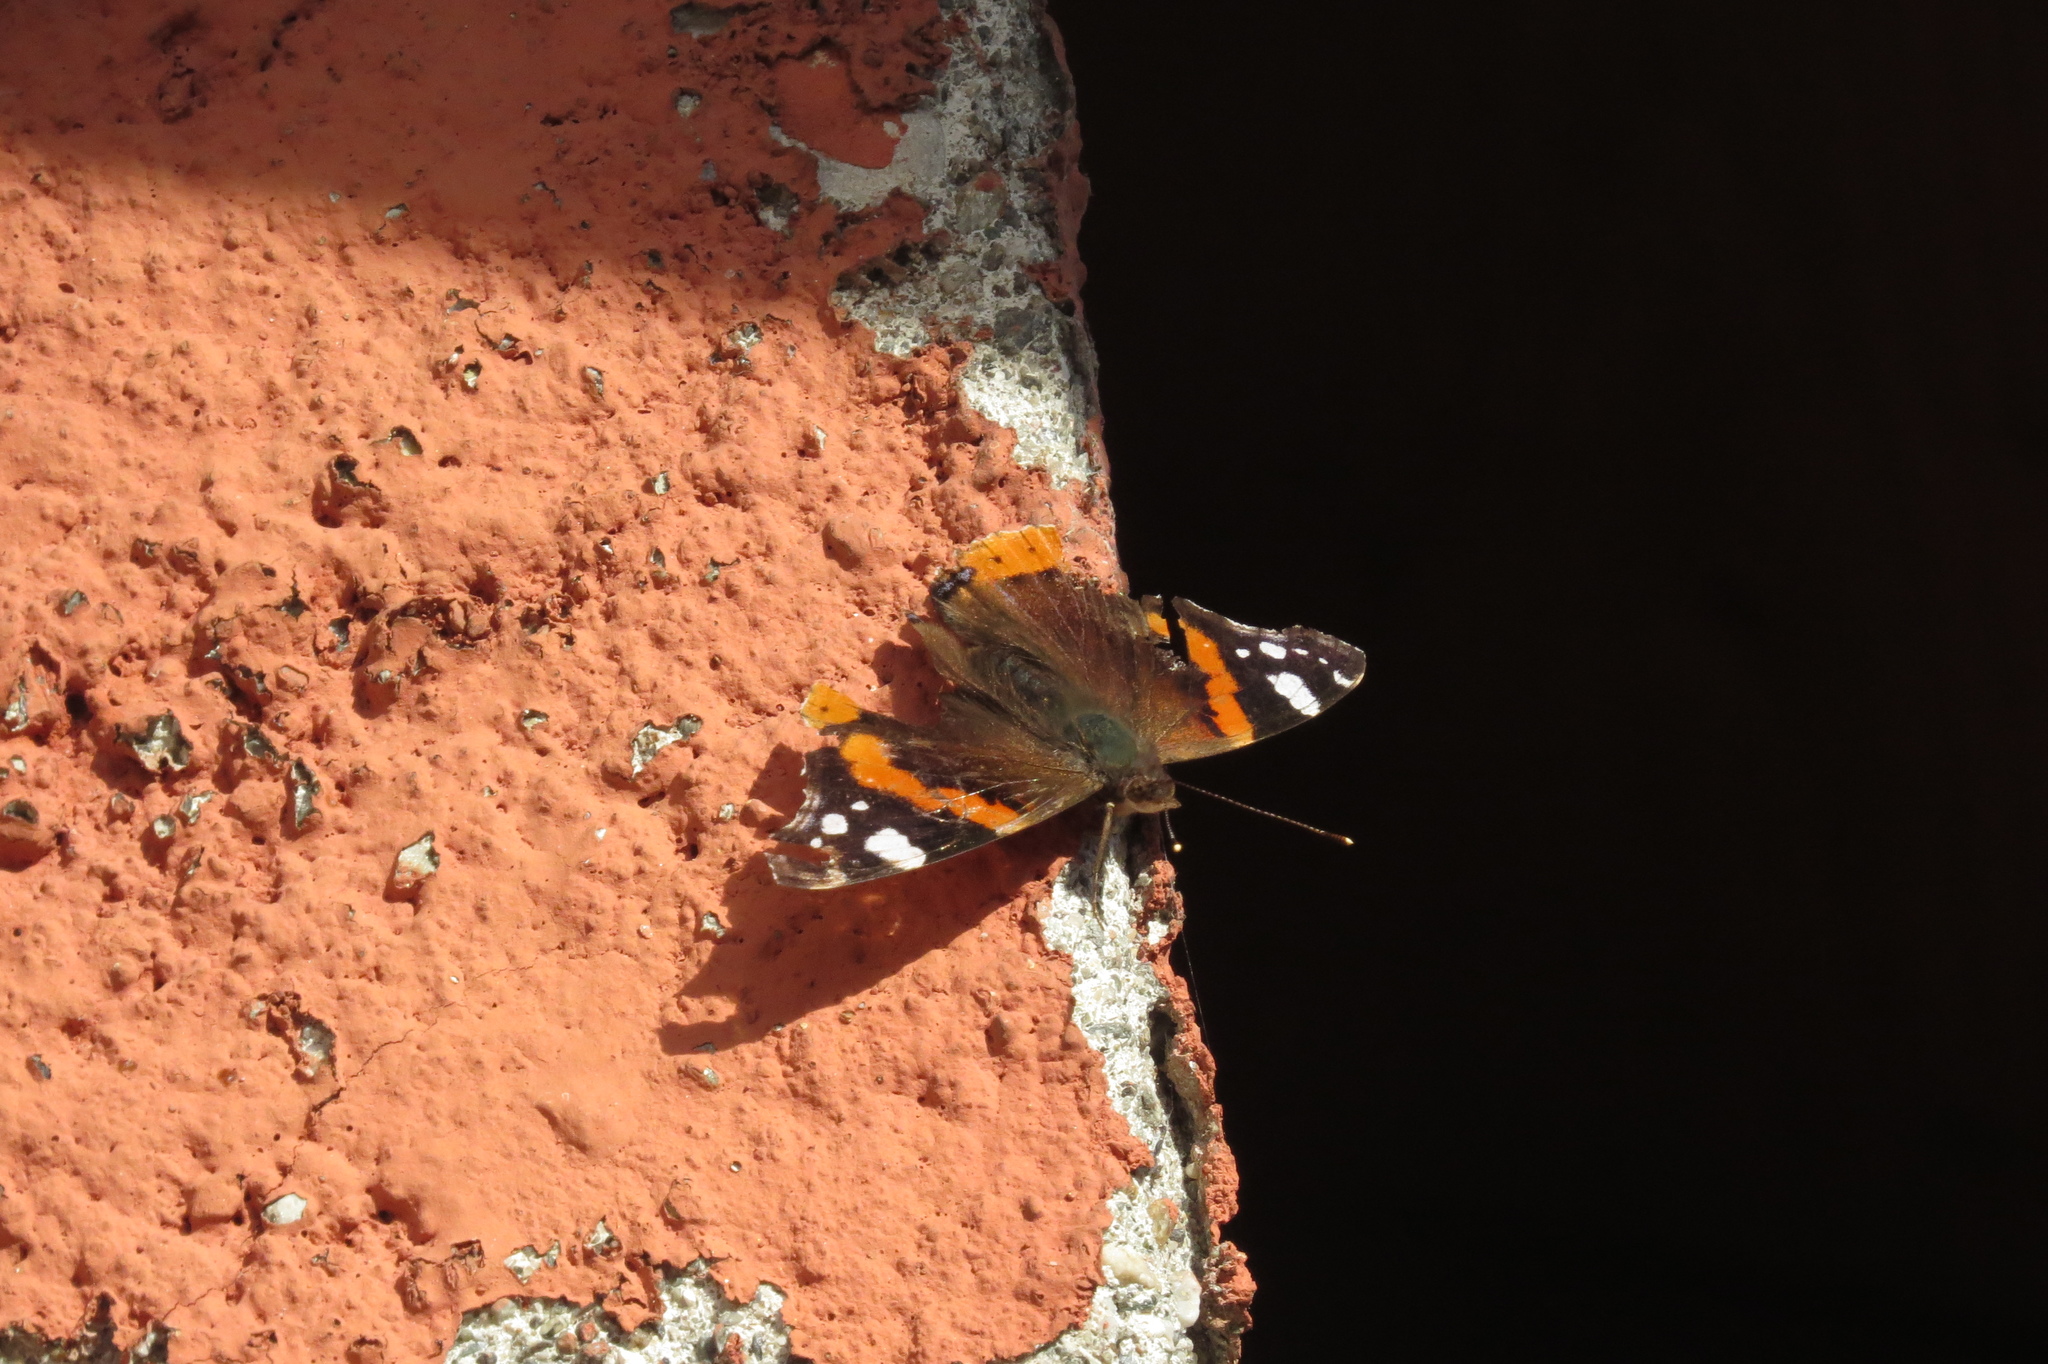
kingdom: Animalia
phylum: Arthropoda
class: Insecta
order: Lepidoptera
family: Nymphalidae
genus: Vanessa
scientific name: Vanessa atalanta
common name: Red admiral
